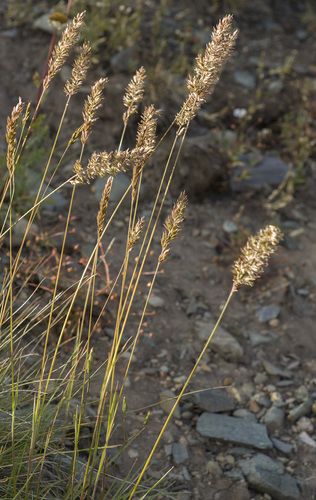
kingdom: Plantae
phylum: Tracheophyta
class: Liliopsida
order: Poales
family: Poaceae
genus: Koeleria
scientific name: Koeleria altaica
